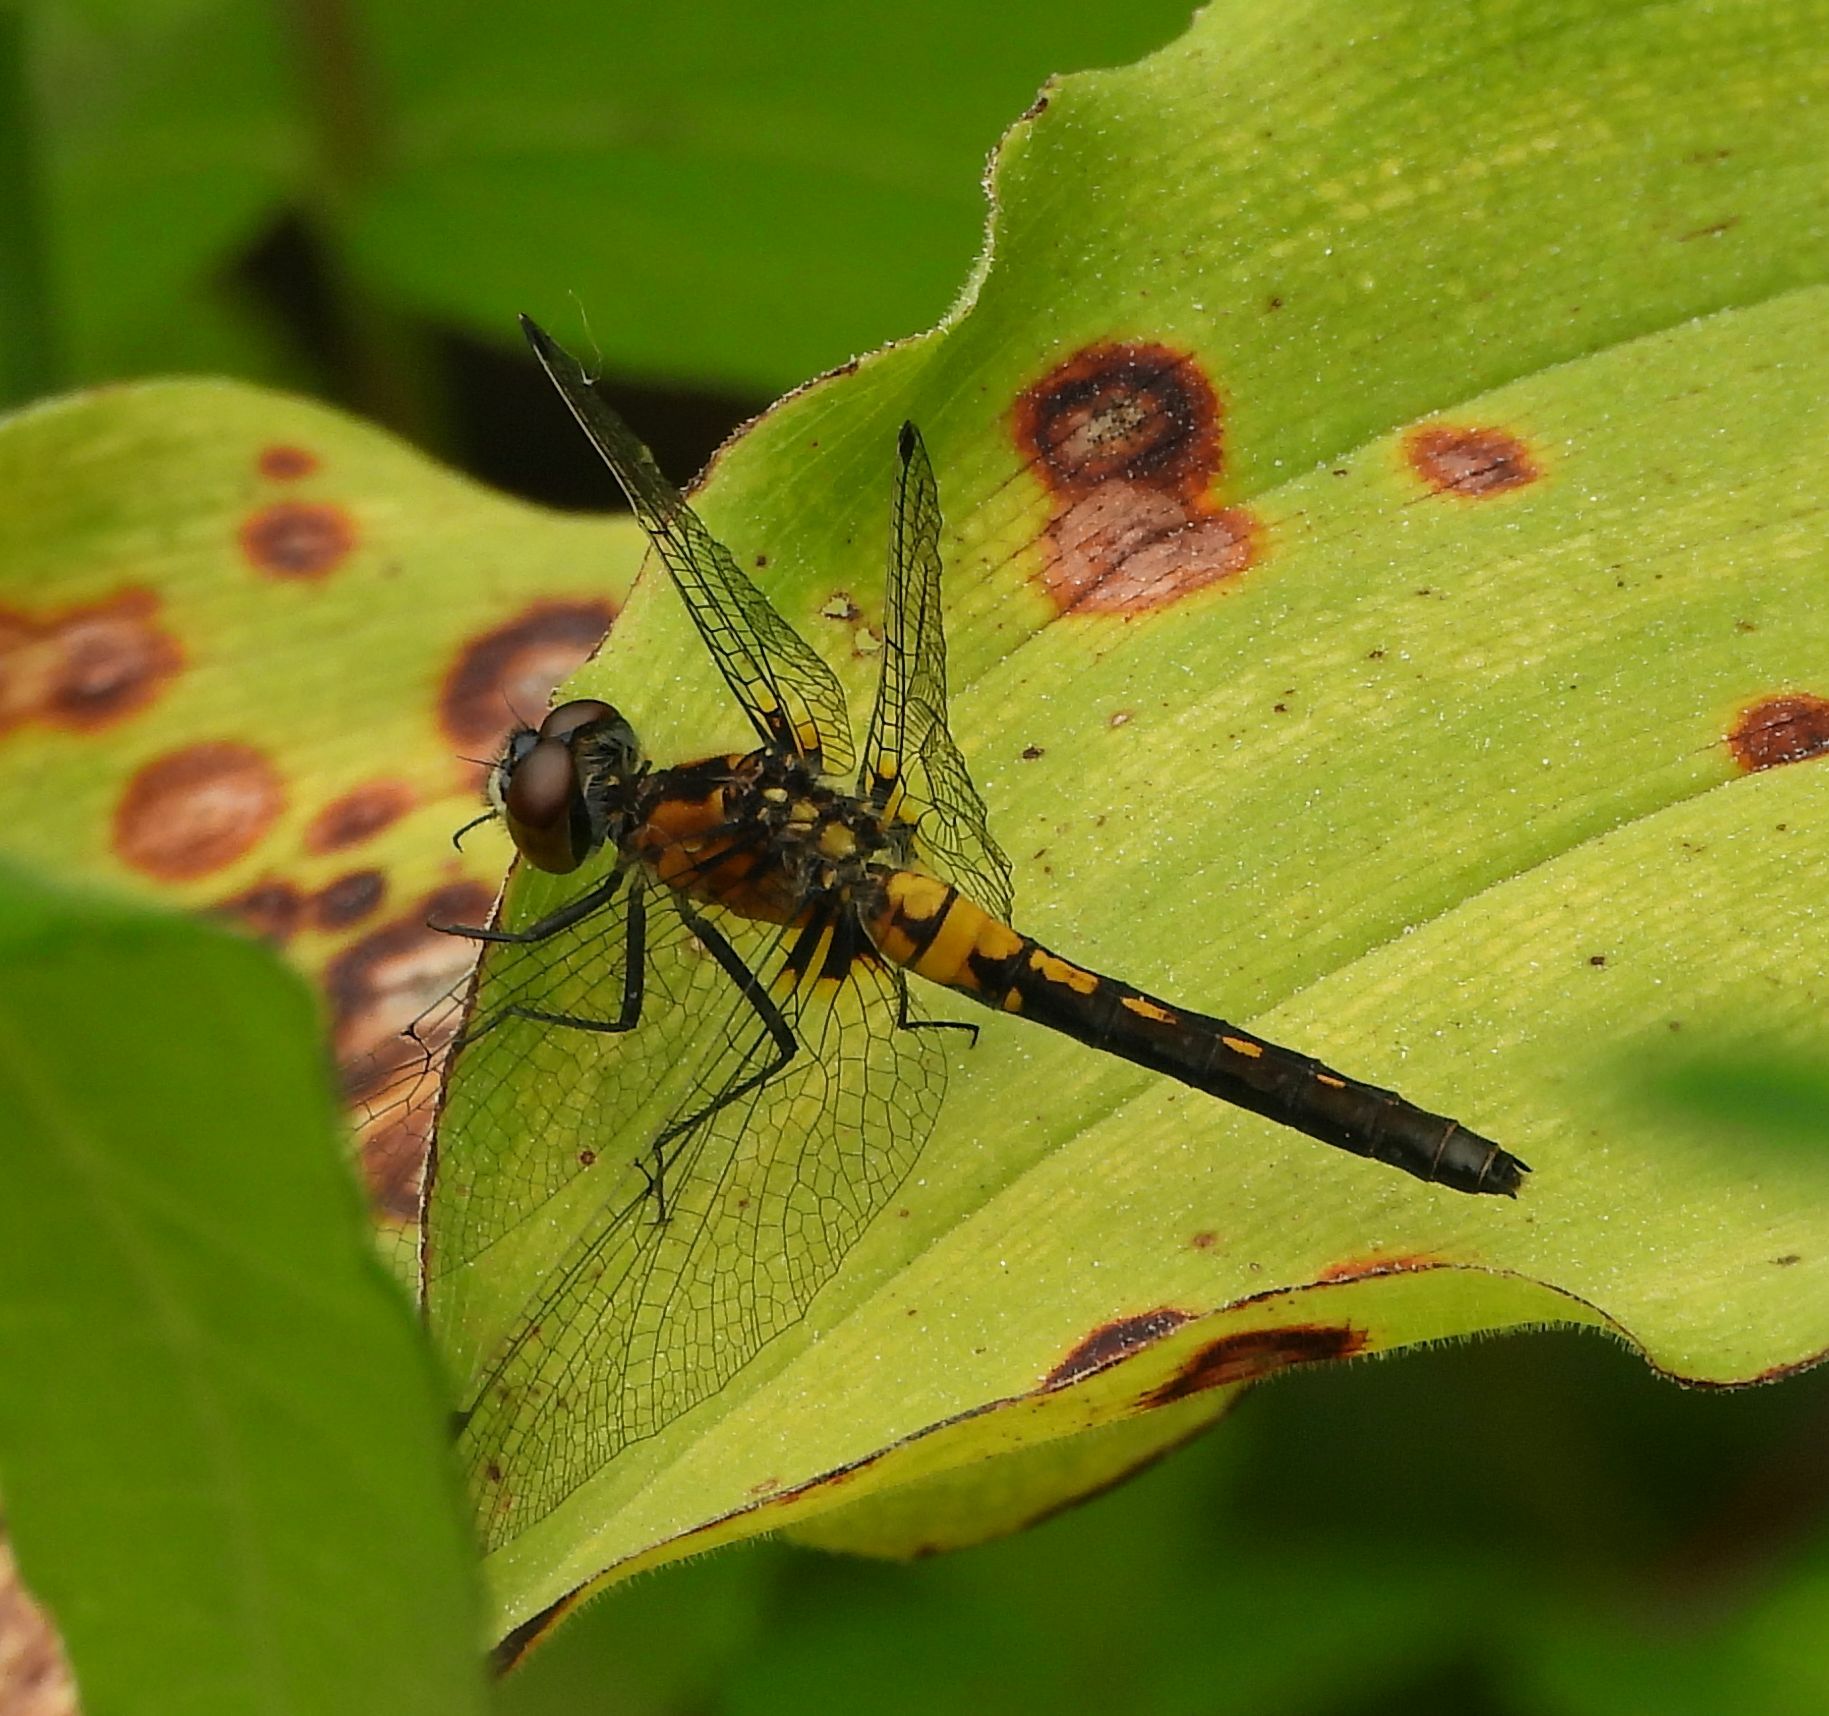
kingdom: Animalia
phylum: Arthropoda
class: Insecta
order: Odonata
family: Libellulidae
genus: Leucorrhinia
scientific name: Leucorrhinia frigida
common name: Frosted whiteface
